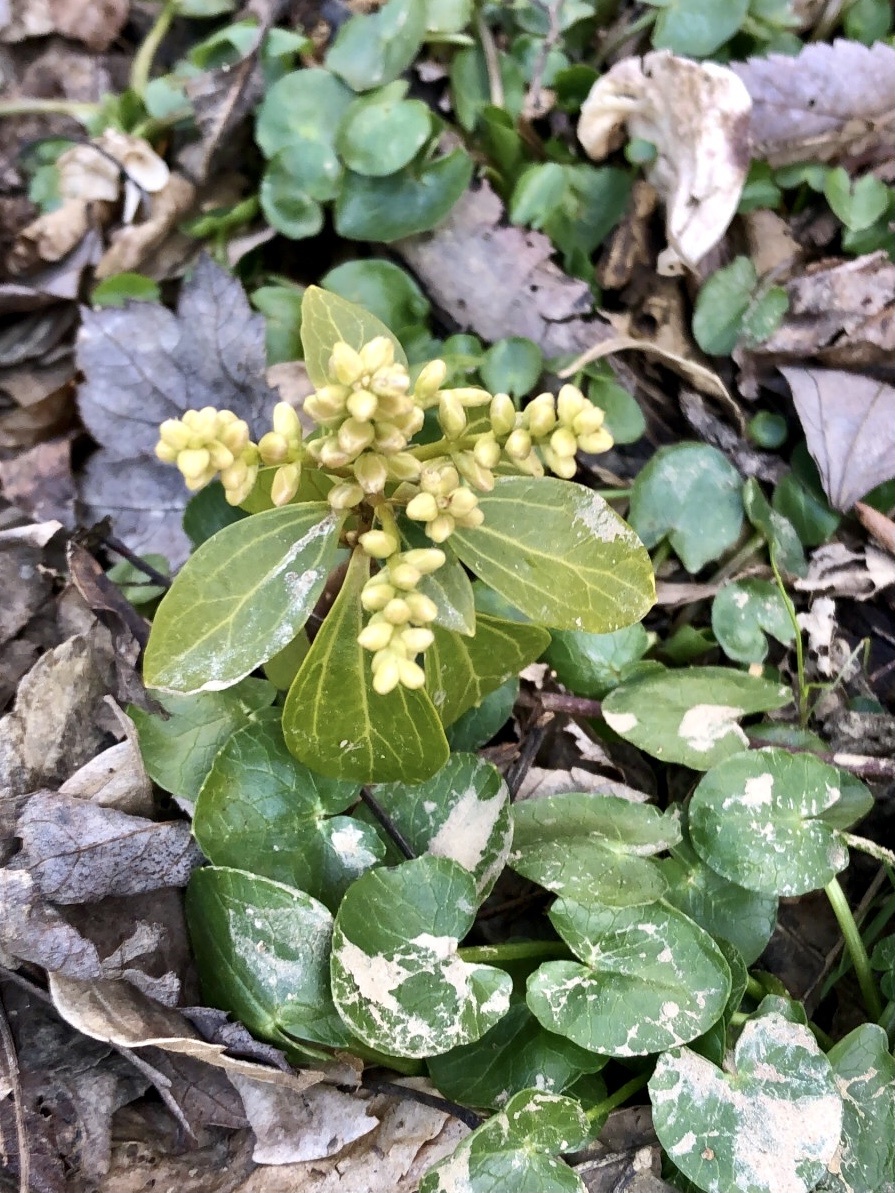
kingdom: Plantae
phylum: Tracheophyta
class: Magnoliopsida
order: Buxales
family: Buxaceae
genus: Pachysandra
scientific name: Pachysandra terminalis
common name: Japanese pachysandra
